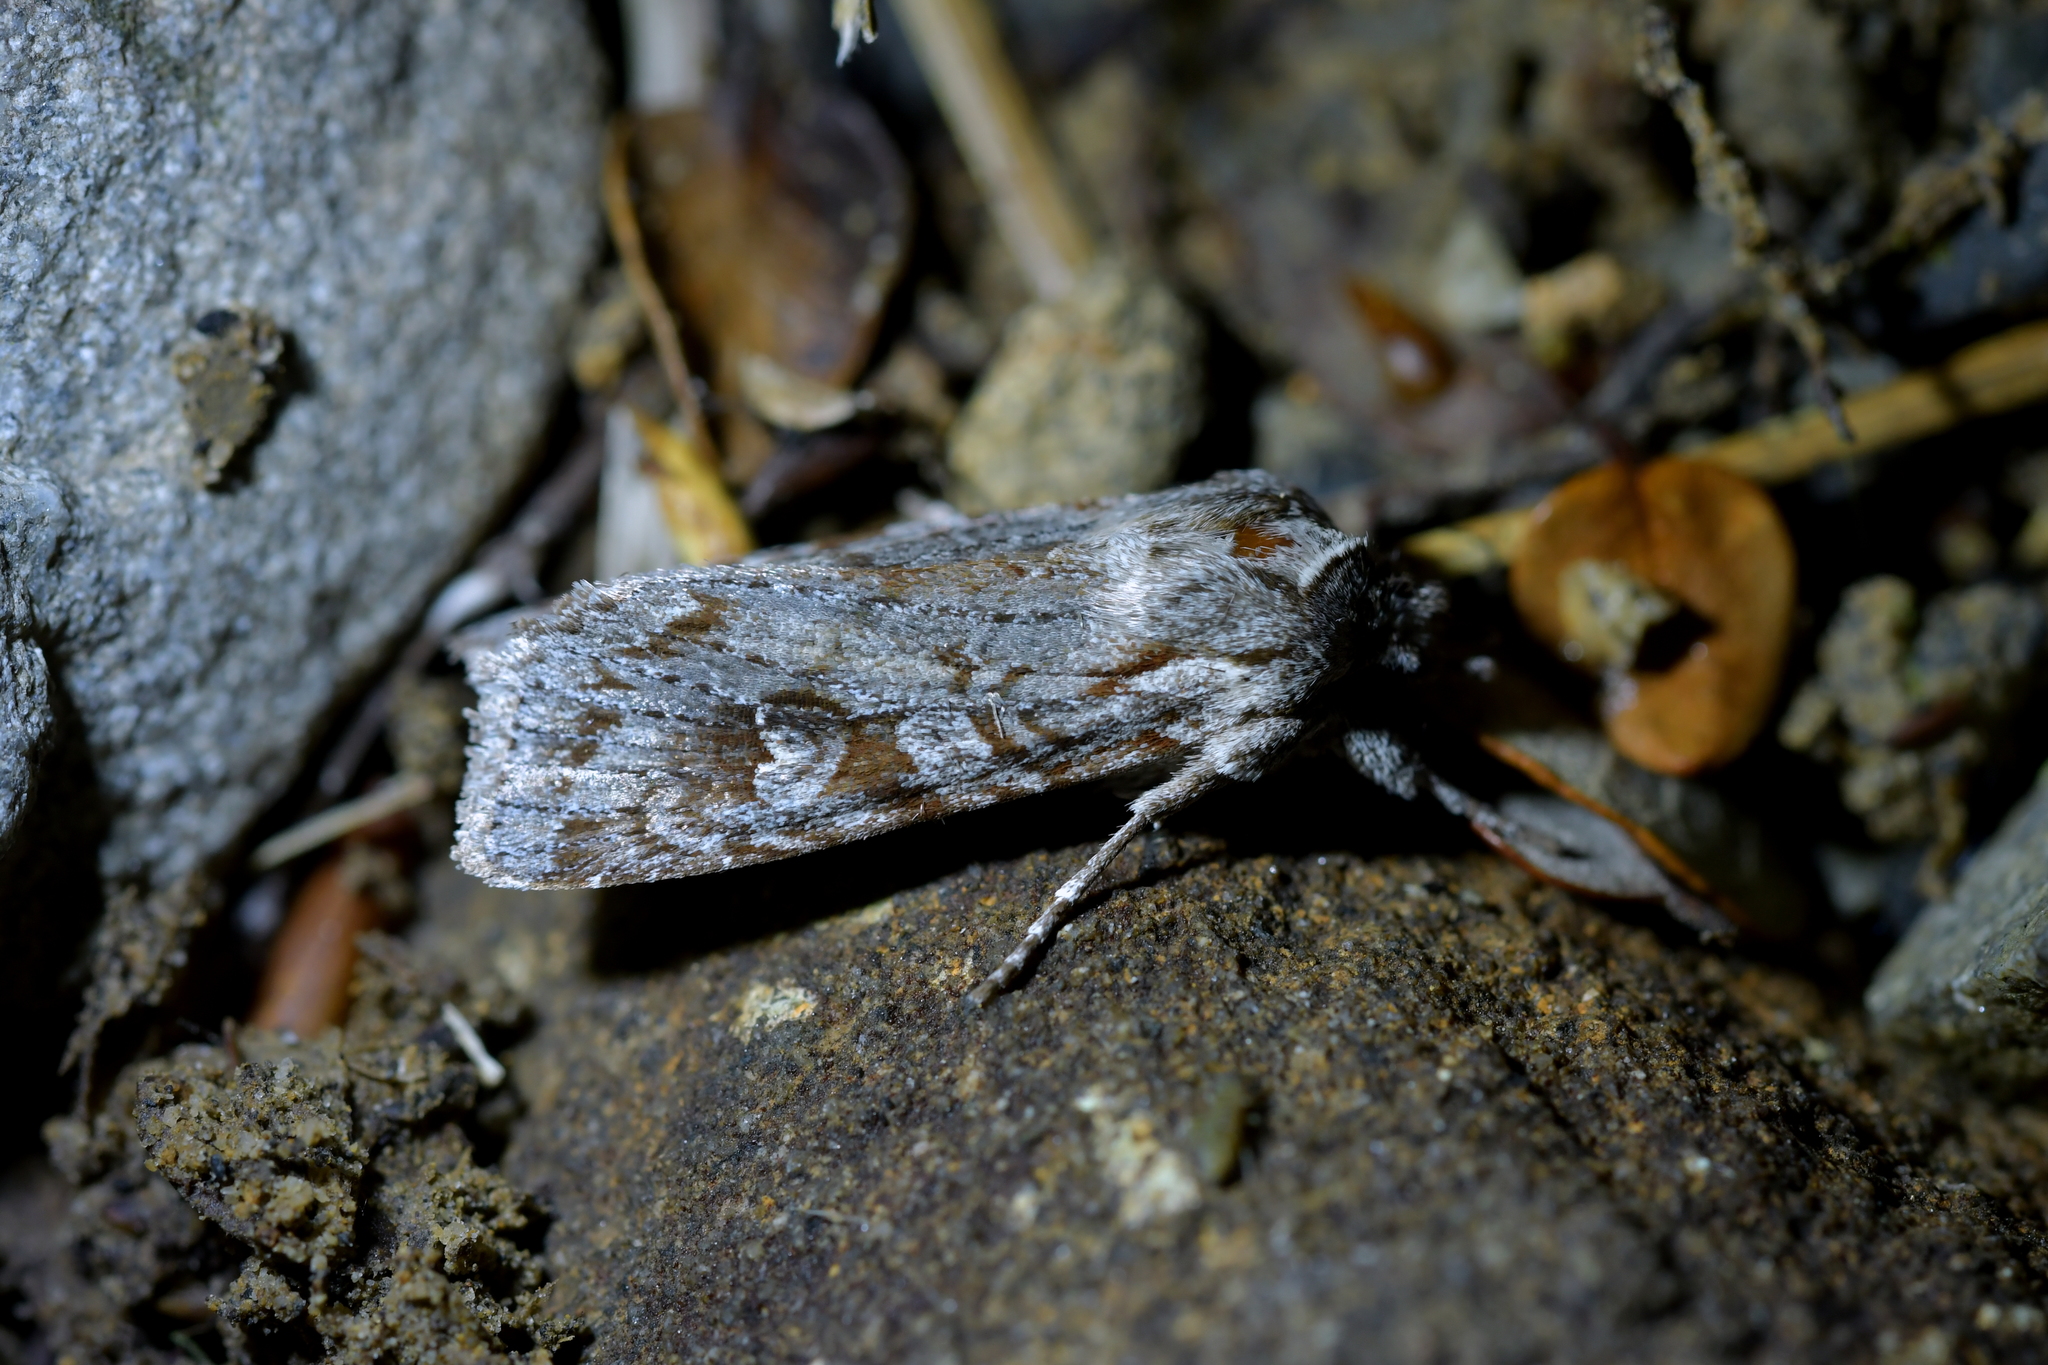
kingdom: Animalia
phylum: Arthropoda
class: Insecta
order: Lepidoptera
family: Noctuidae
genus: Physetica
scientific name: Physetica longstaffii
